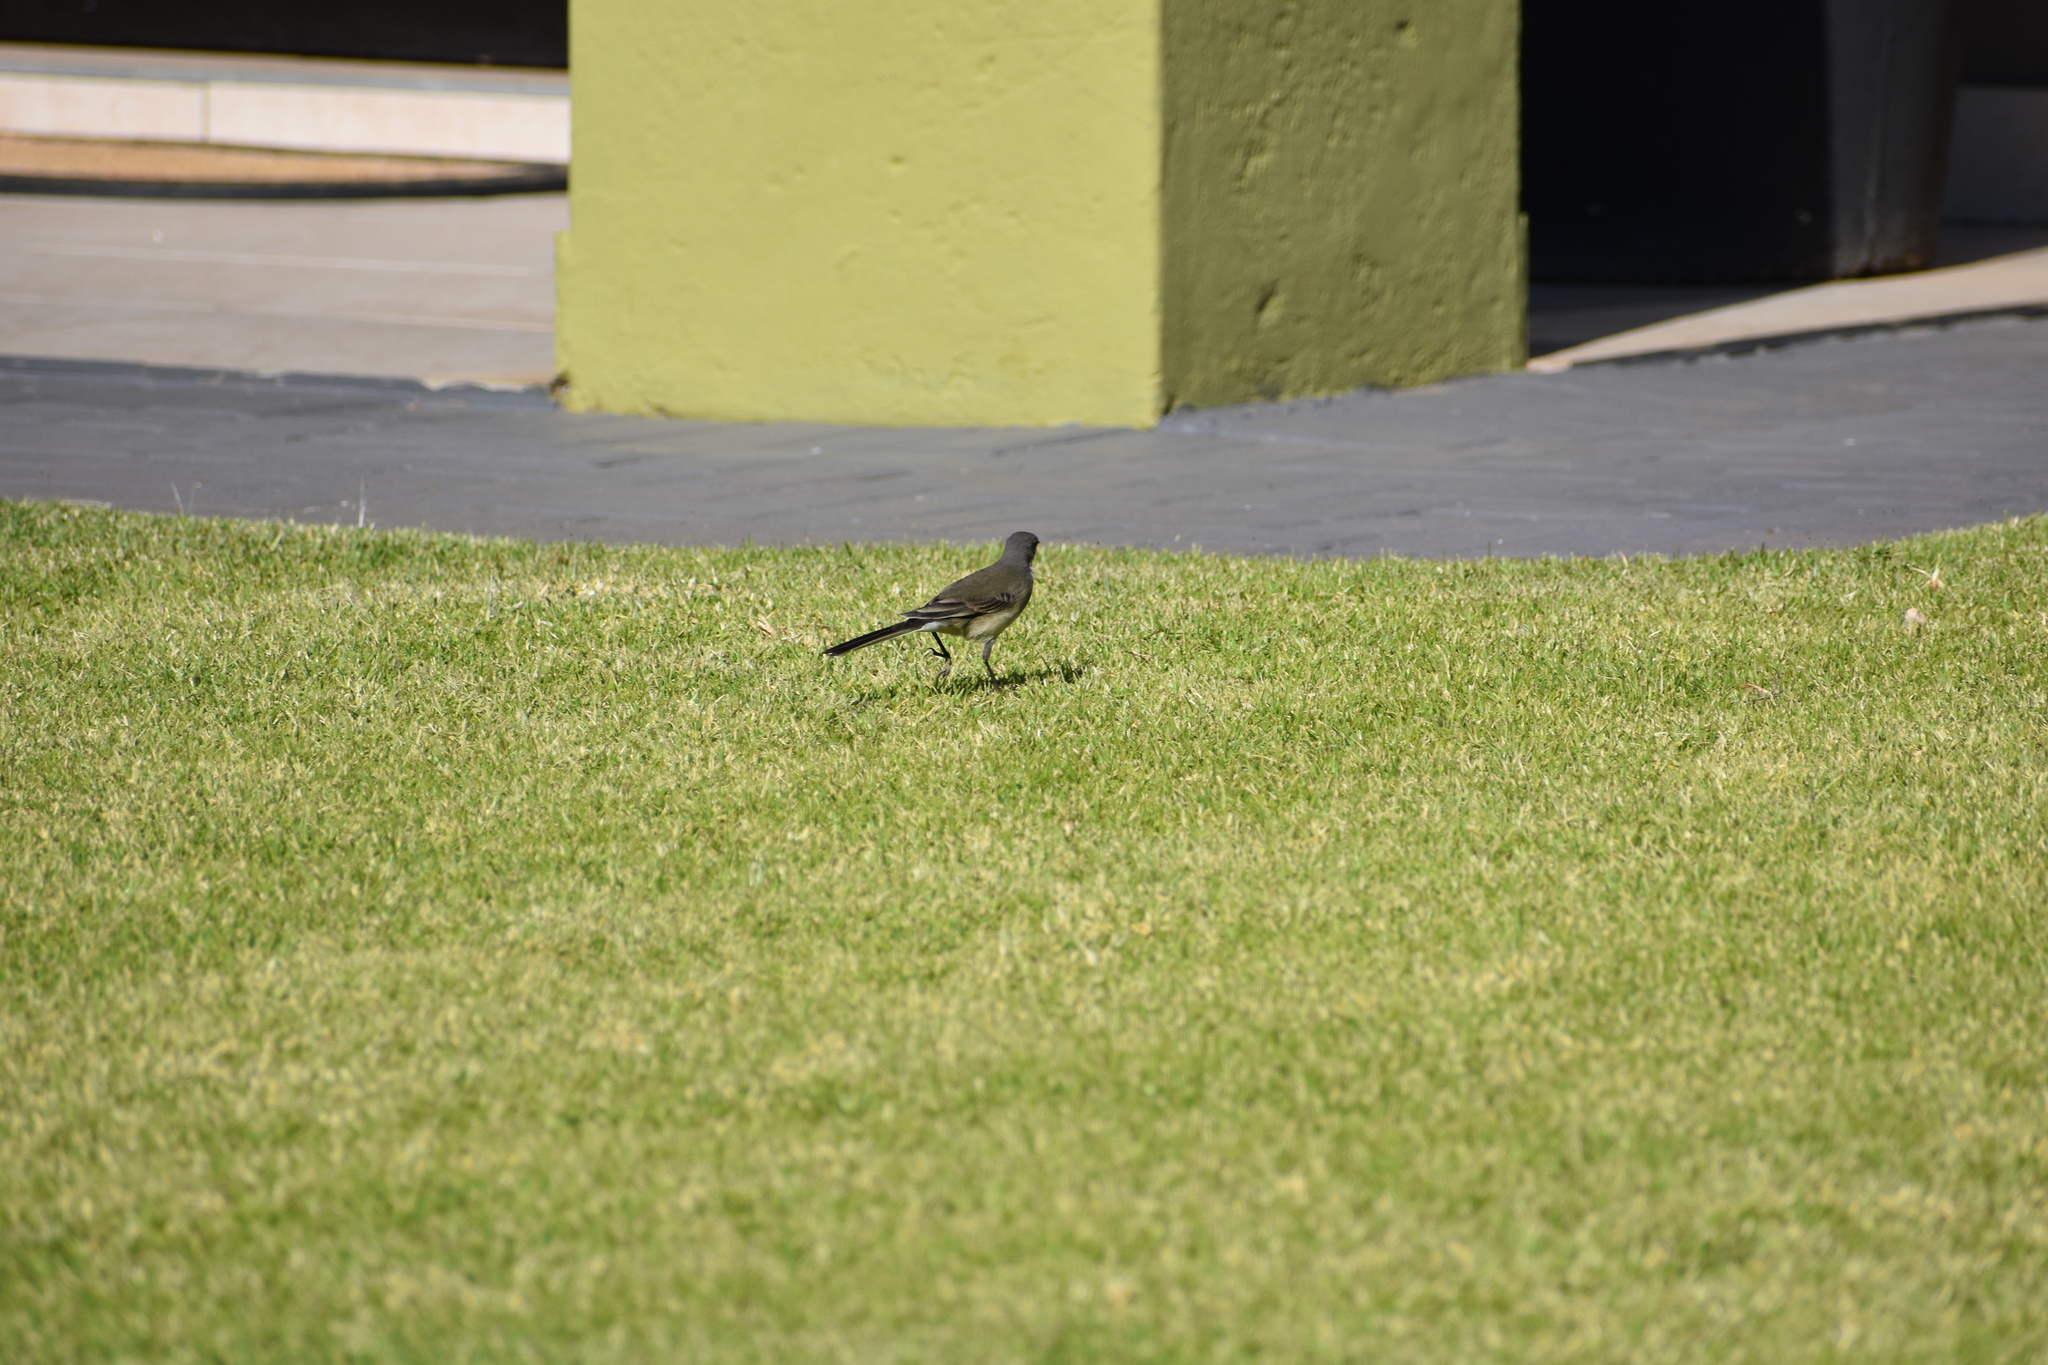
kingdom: Animalia
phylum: Chordata
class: Aves
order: Passeriformes
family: Motacillidae
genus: Motacilla
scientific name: Motacilla capensis
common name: Cape wagtail
